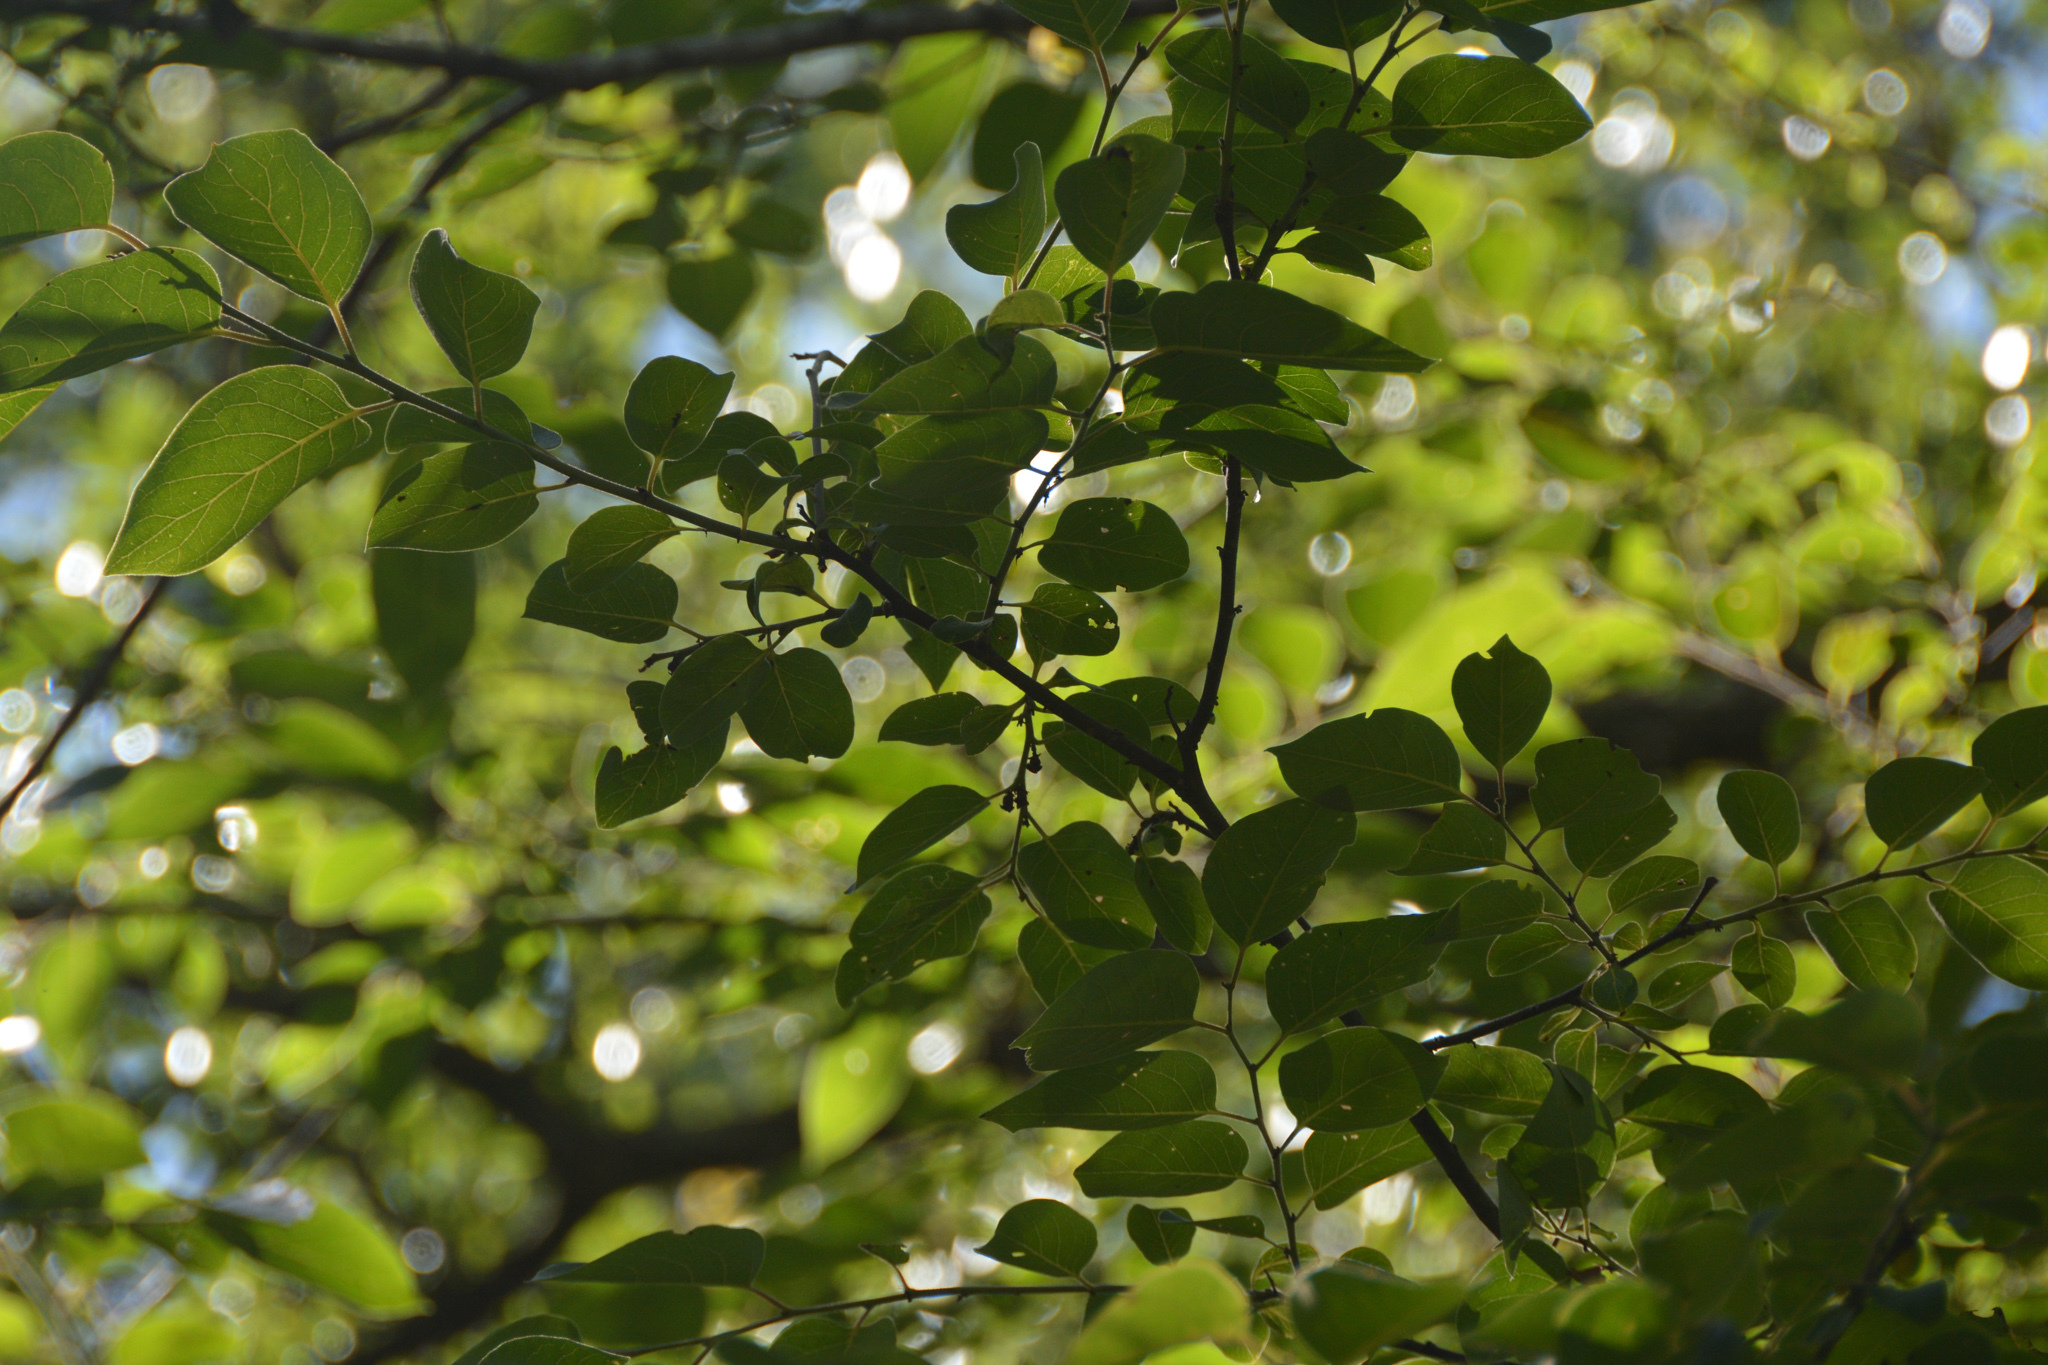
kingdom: Plantae
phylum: Tracheophyta
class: Magnoliopsida
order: Ericales
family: Ebenaceae
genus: Diospyros
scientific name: Diospyros virginiana
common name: Persimmon
